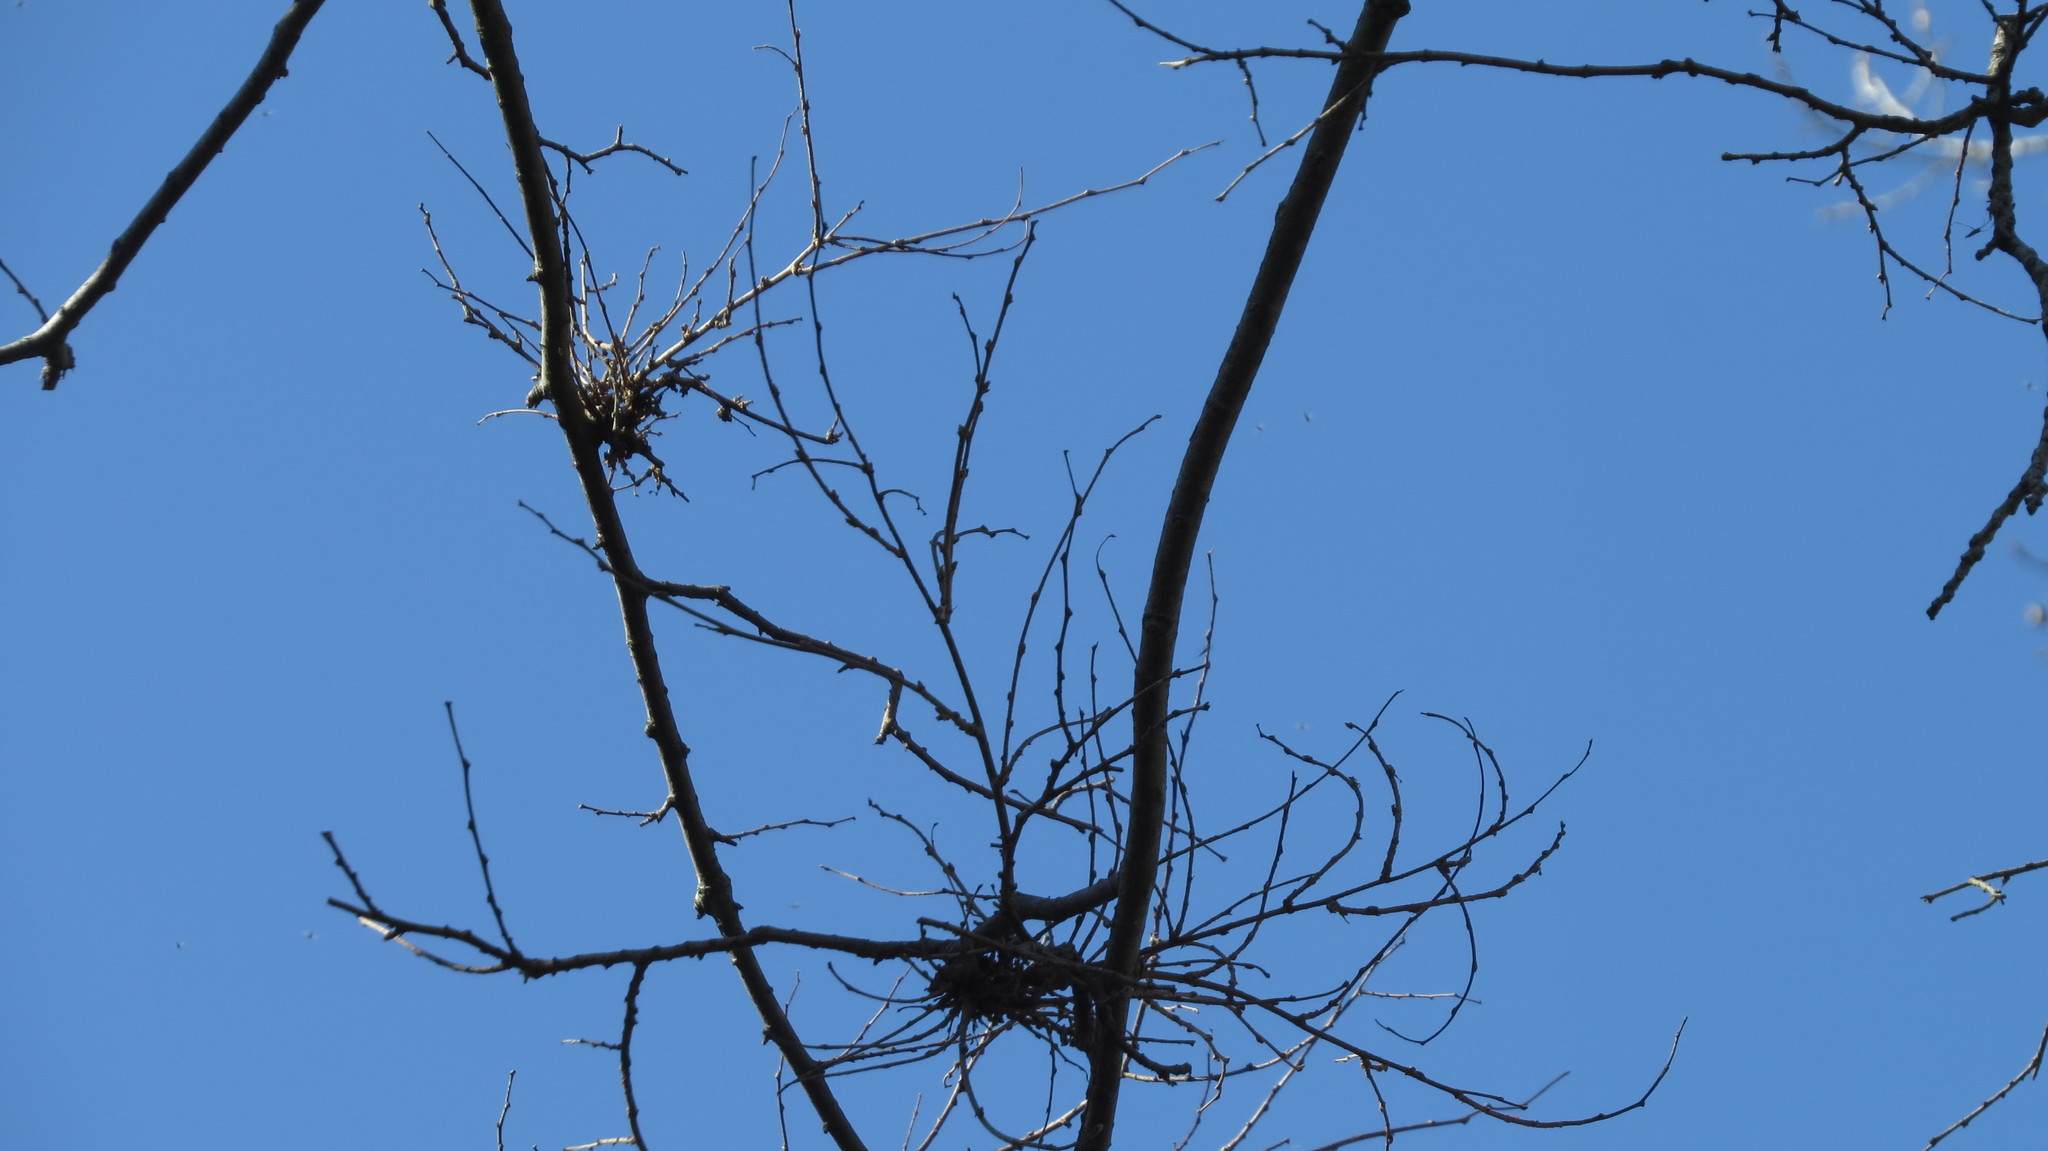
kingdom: Animalia
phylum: Arthropoda
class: Arachnida
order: Trombidiformes
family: Eriophyidae
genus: Aceria
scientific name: Aceria
